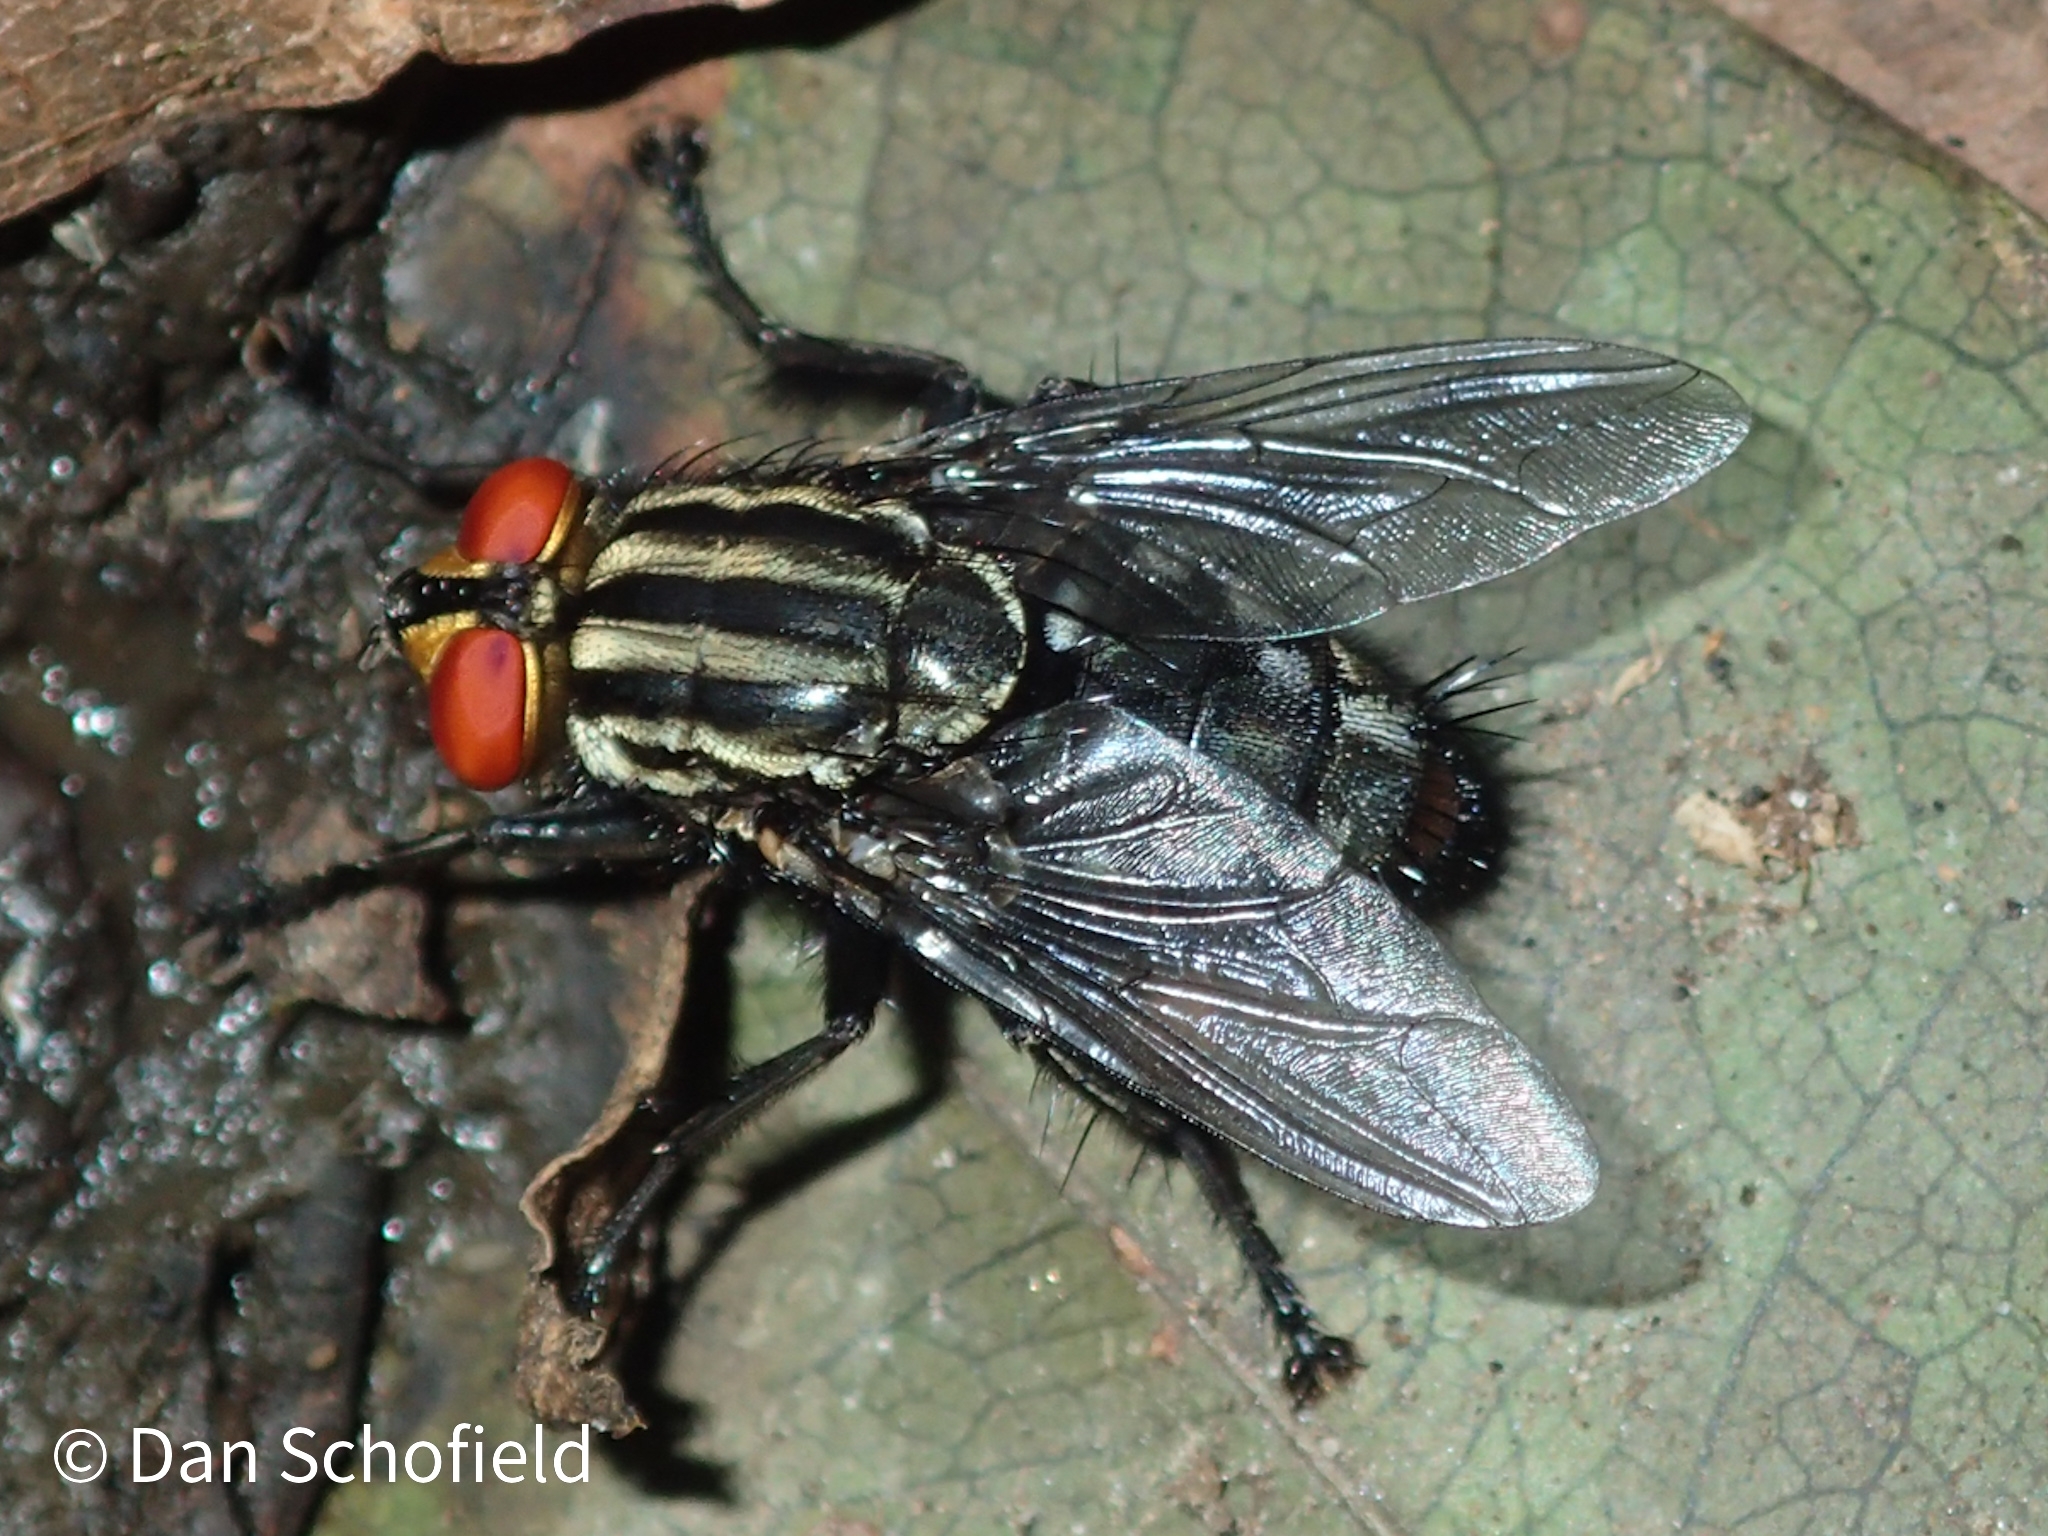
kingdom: Animalia
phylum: Arthropoda
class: Insecta
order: Diptera
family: Sarcophagidae
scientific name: Sarcophagidae
